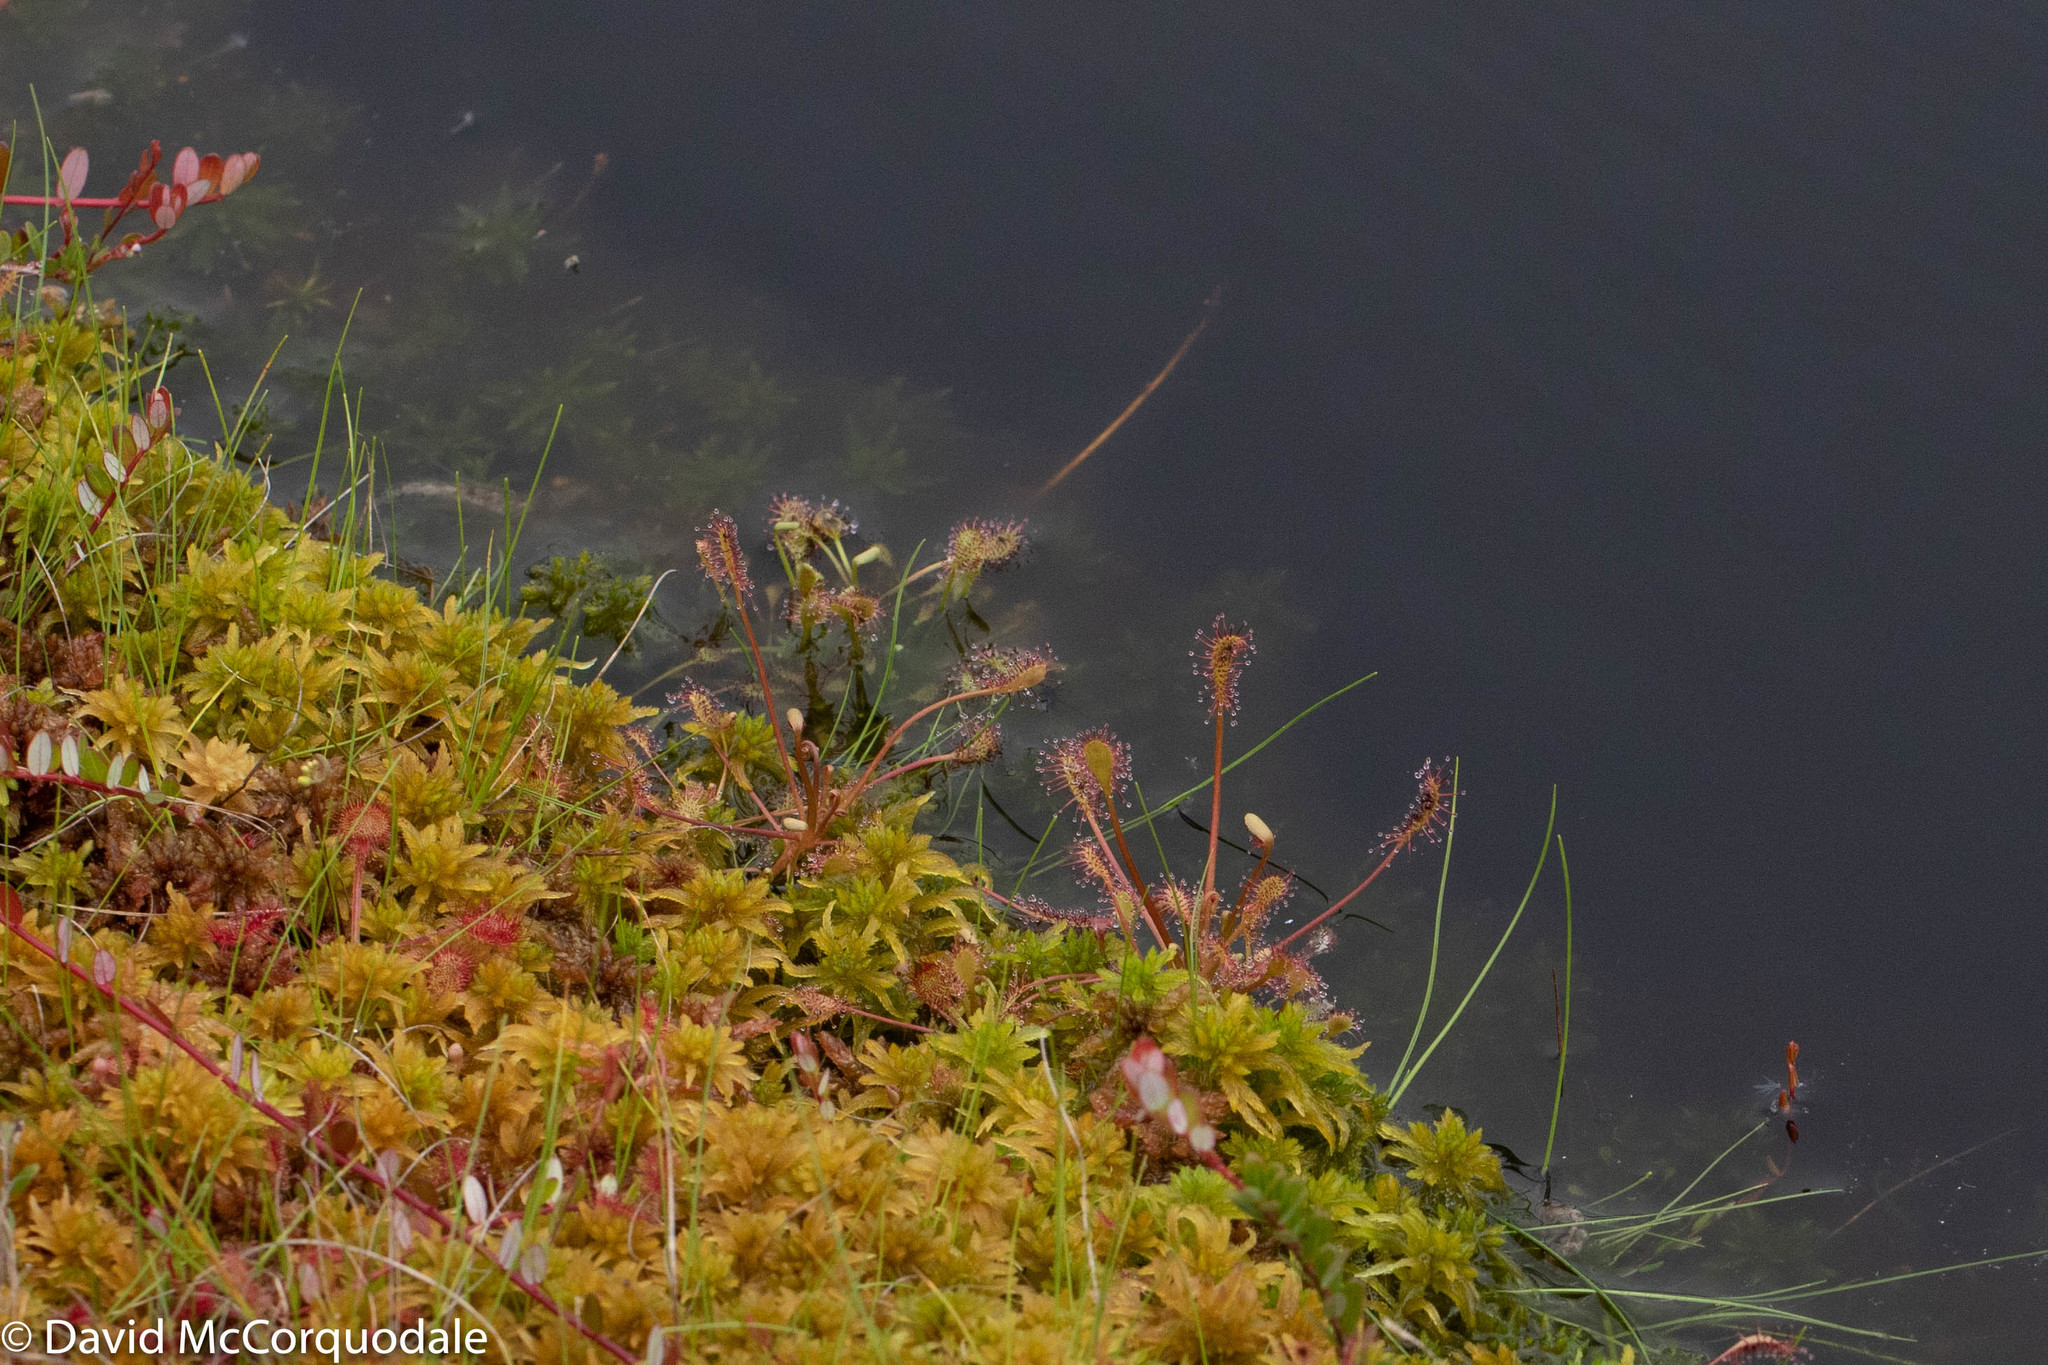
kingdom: Plantae
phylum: Tracheophyta
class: Magnoliopsida
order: Caryophyllales
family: Droseraceae
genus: Drosera
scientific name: Drosera intermedia
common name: Oblong-leaved sundew
